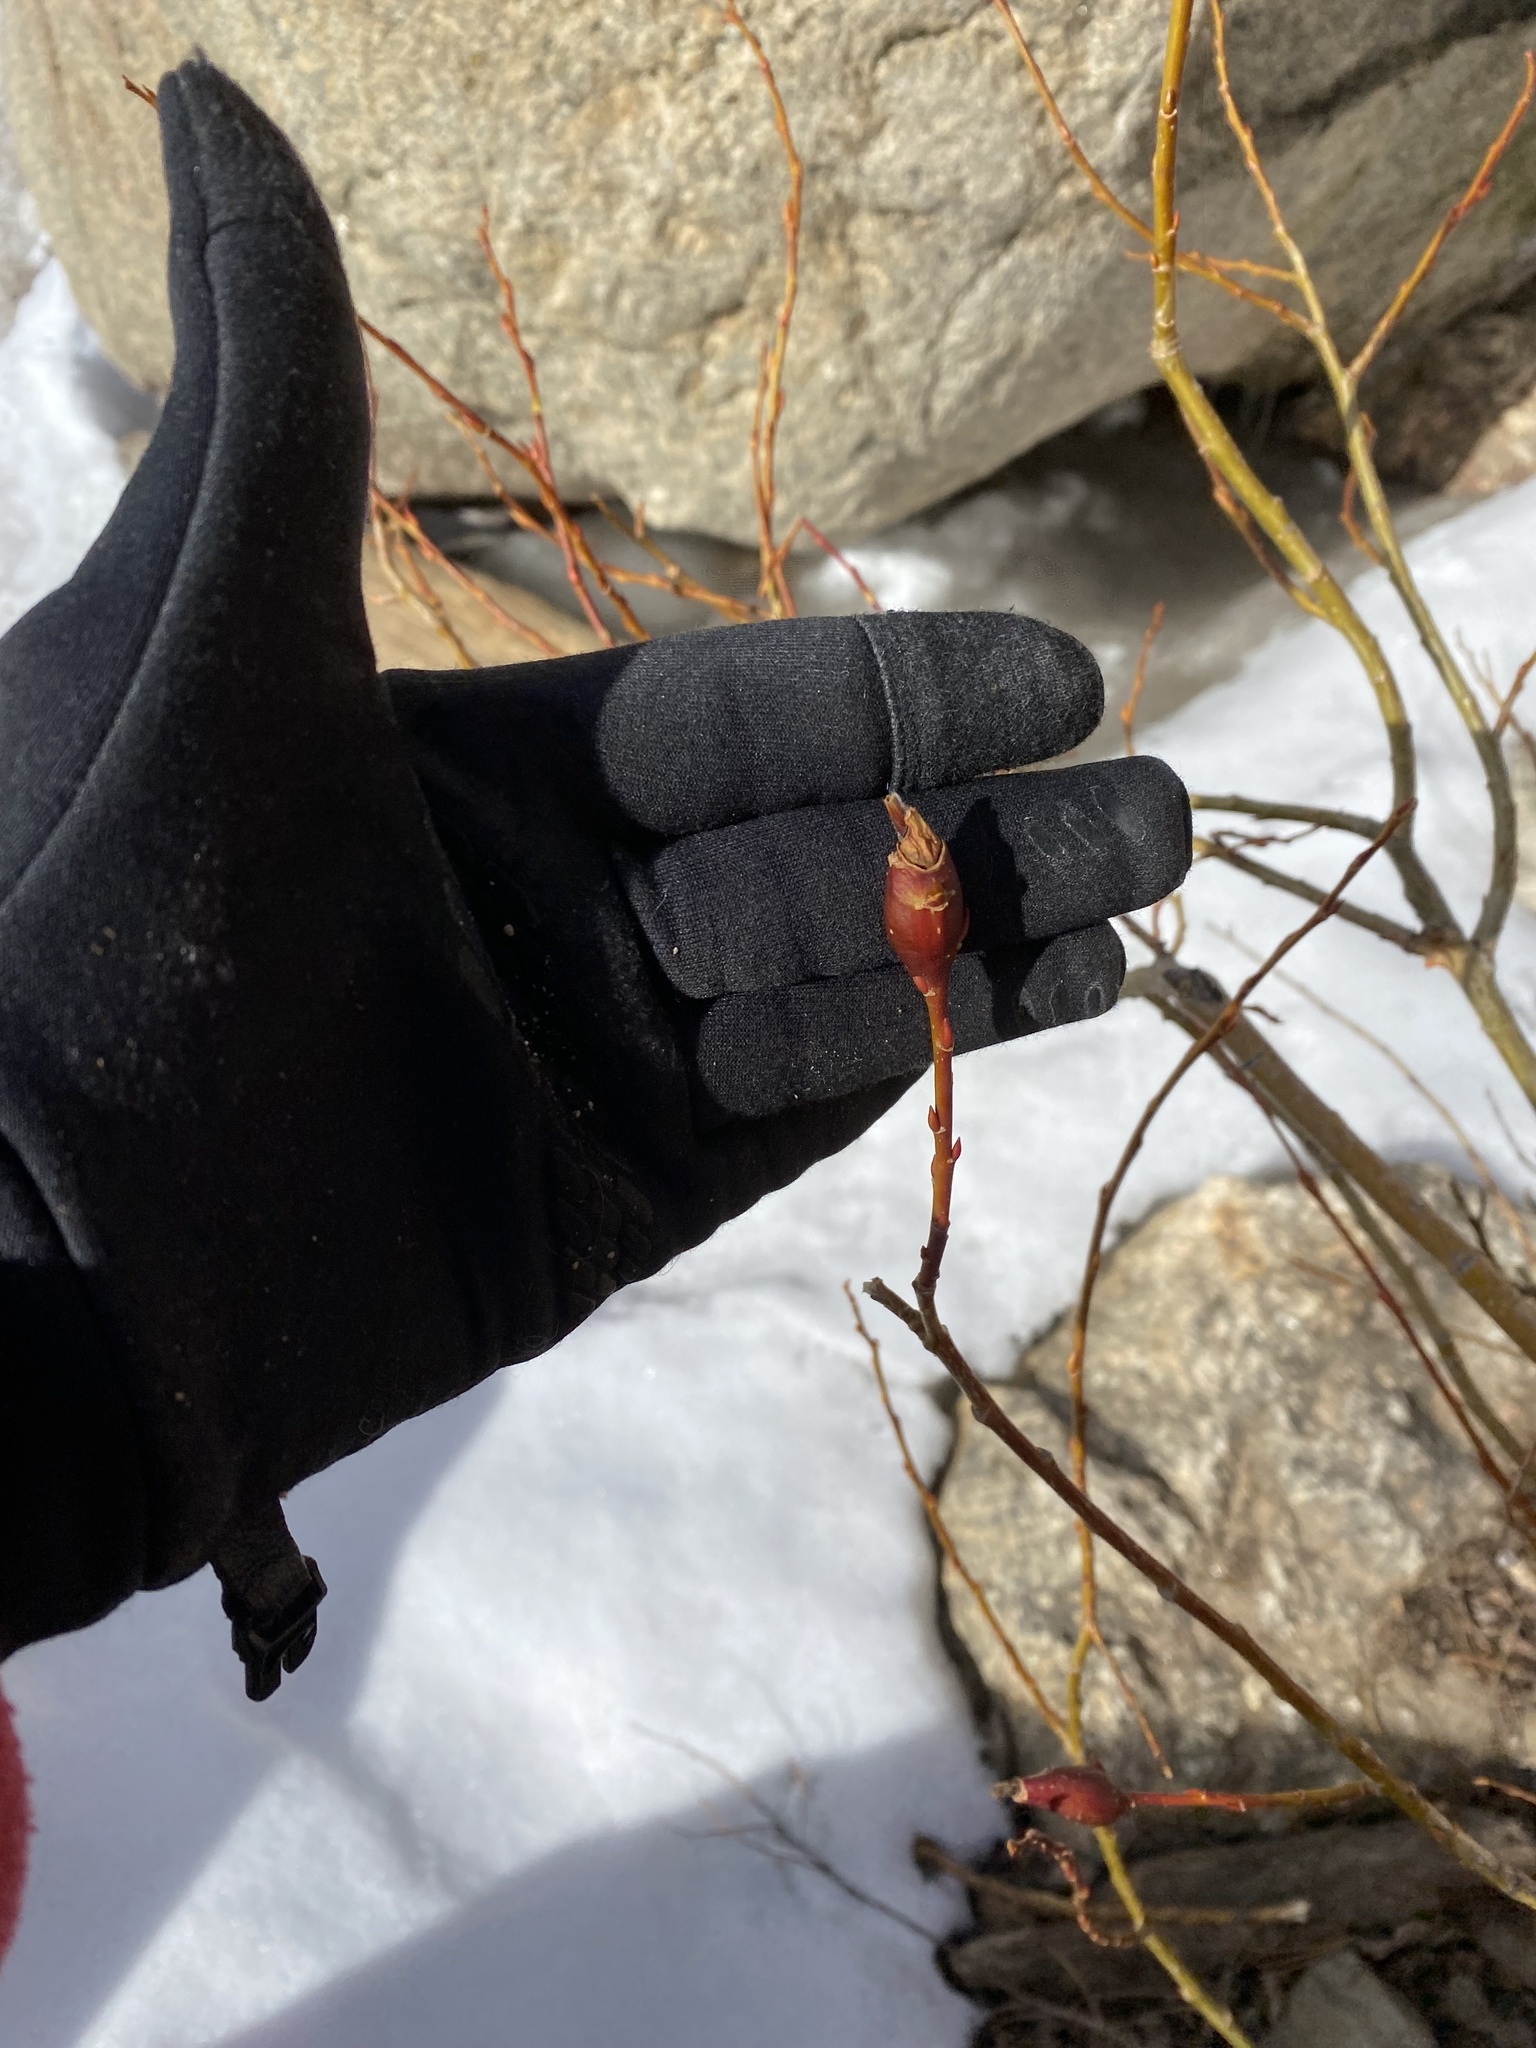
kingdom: Animalia
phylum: Arthropoda
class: Insecta
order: Diptera
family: Cecidomyiidae
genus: Thecodiplosis
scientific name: Thecodiplosis pinirigidae
